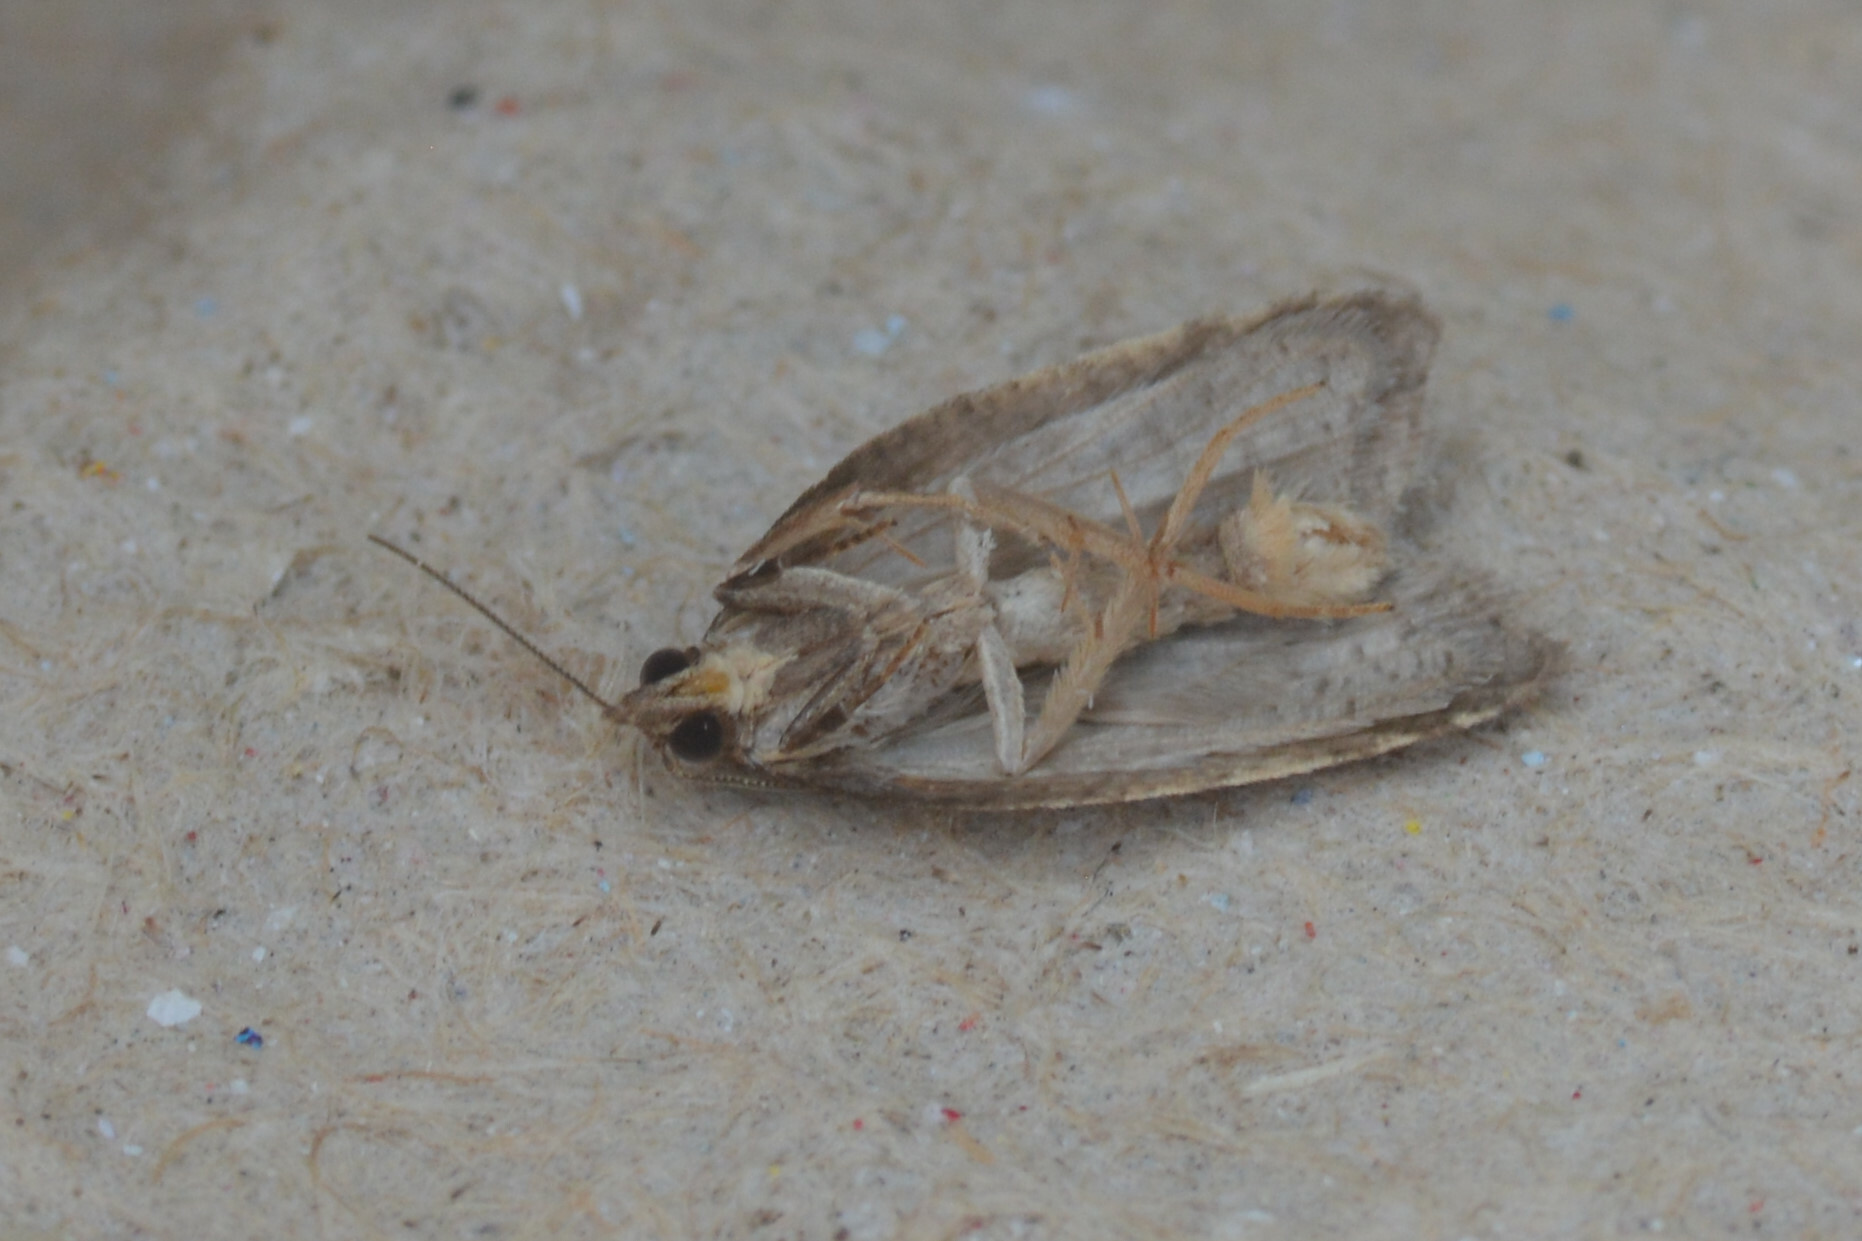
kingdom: Animalia
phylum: Arthropoda
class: Insecta
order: Lepidoptera
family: Tortricidae
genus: Acleris
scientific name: Acleris laterana
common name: Dark-triangle button
